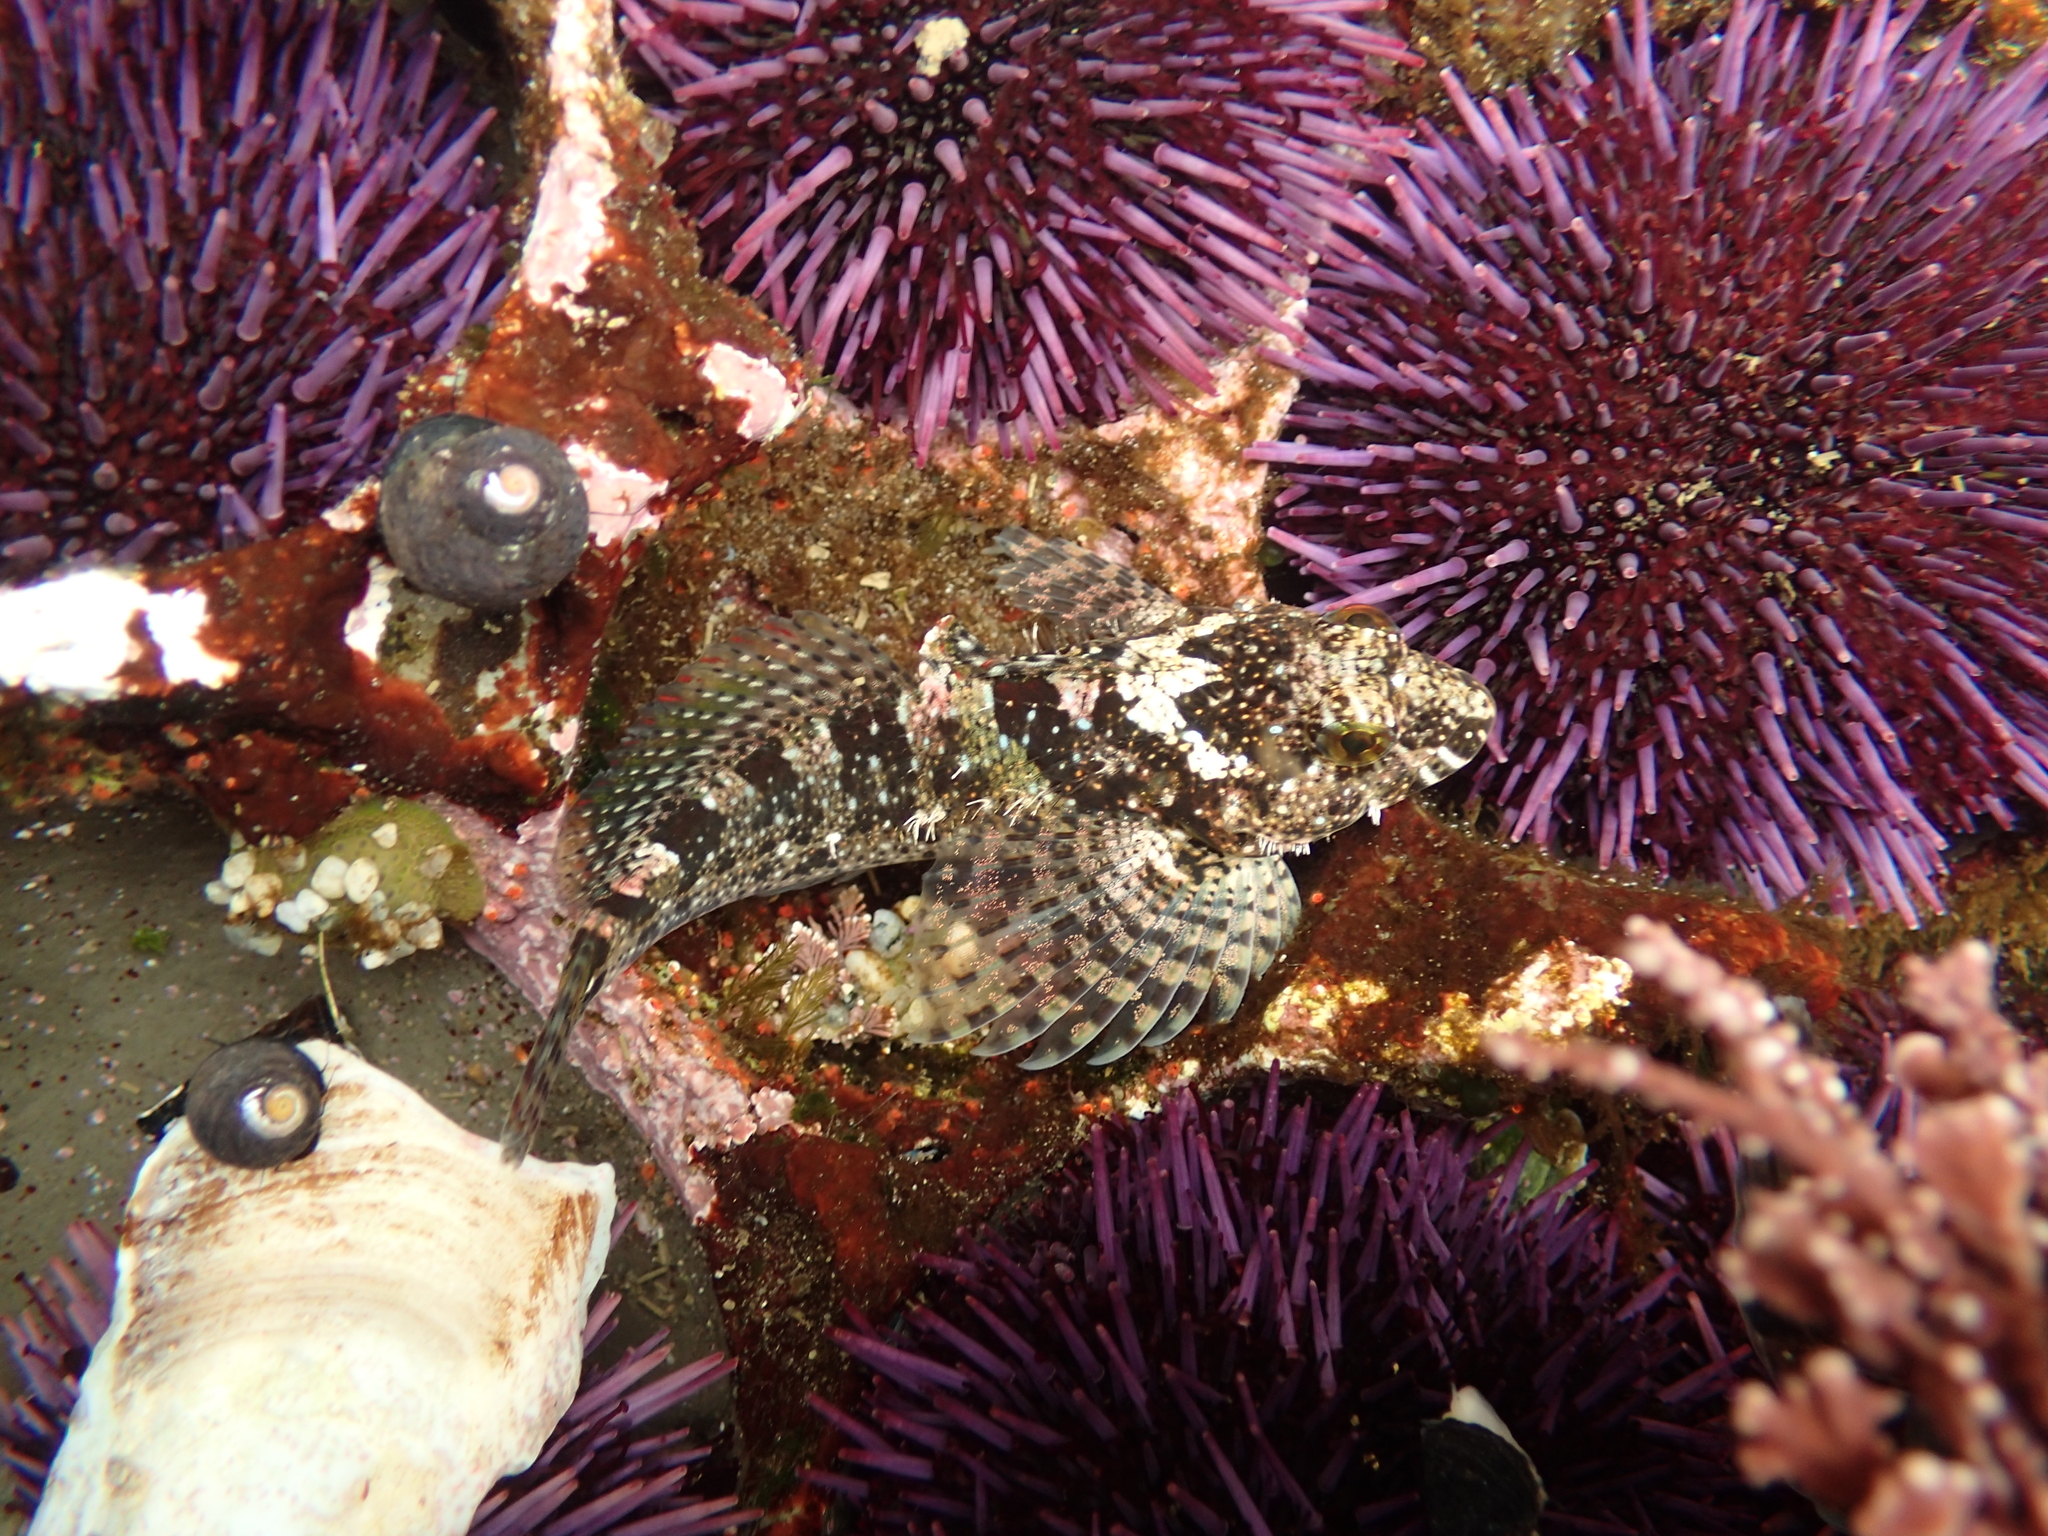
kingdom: Animalia
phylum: Chordata
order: Scorpaeniformes
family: Cottidae
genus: Clinocottus
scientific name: Clinocottus analis
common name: Woolly sculpin
